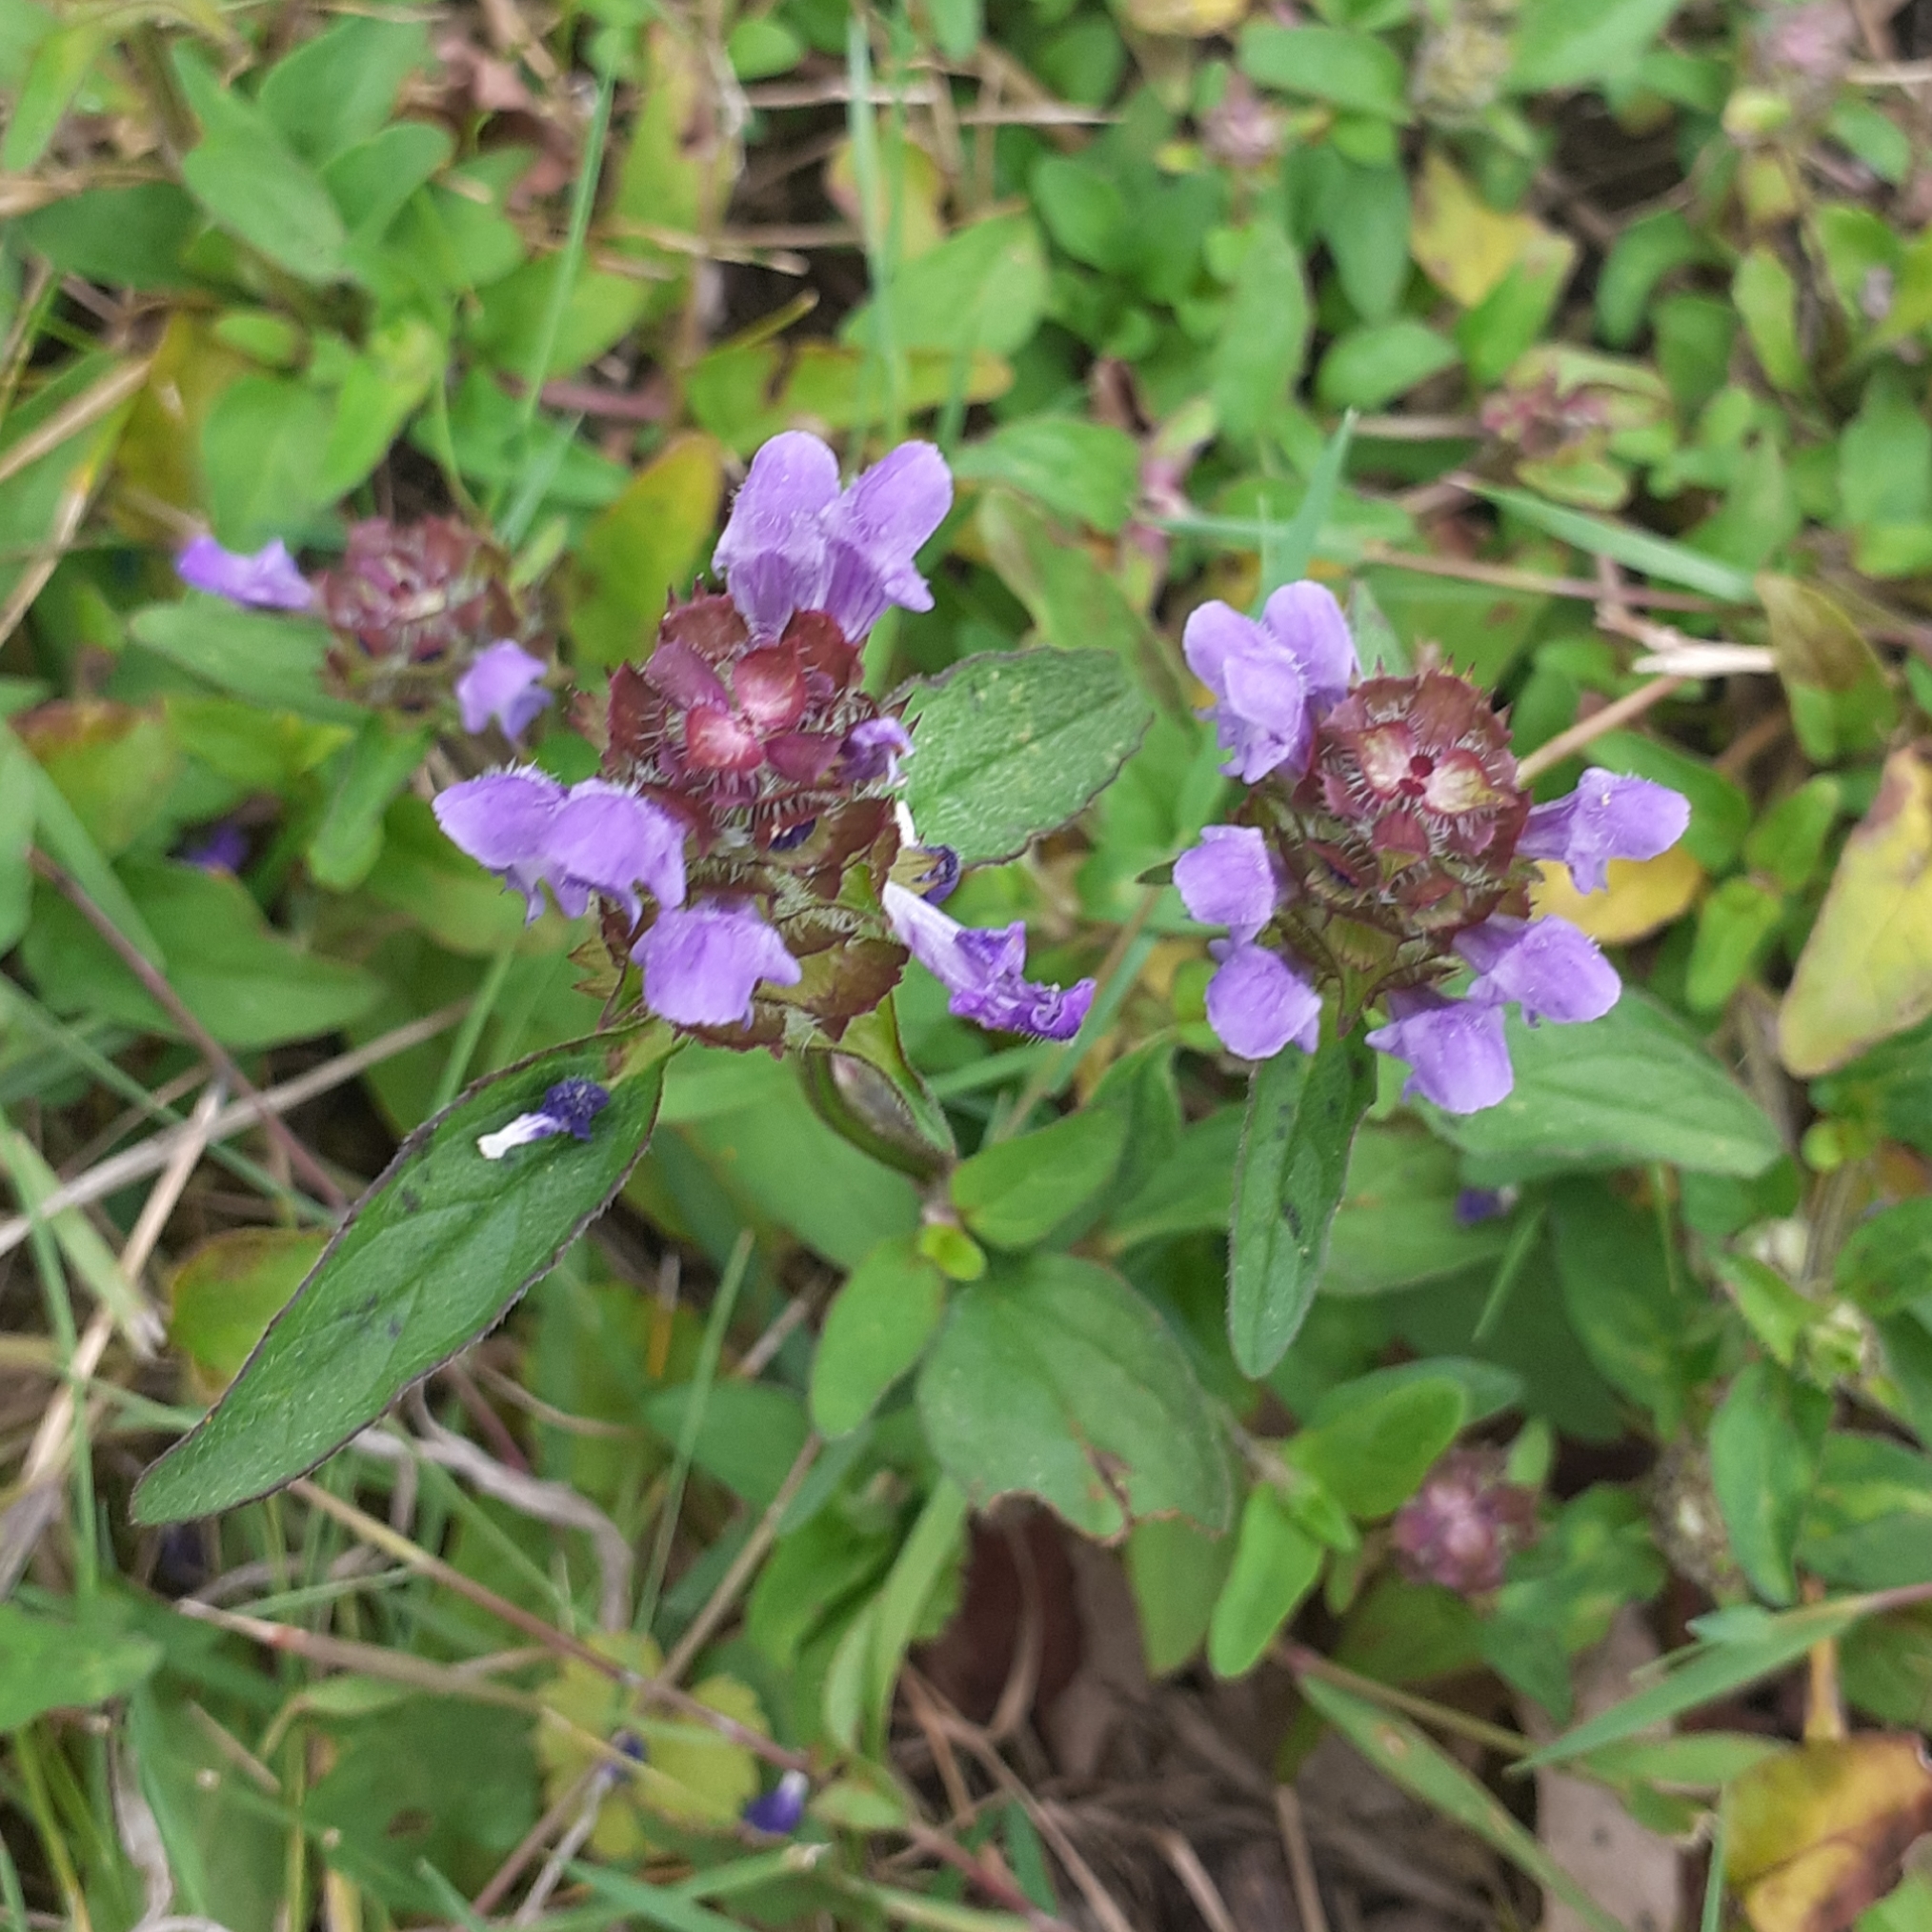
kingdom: Plantae
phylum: Tracheophyta
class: Magnoliopsida
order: Lamiales
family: Lamiaceae
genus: Prunella
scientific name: Prunella vulgaris
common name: Heal-all
